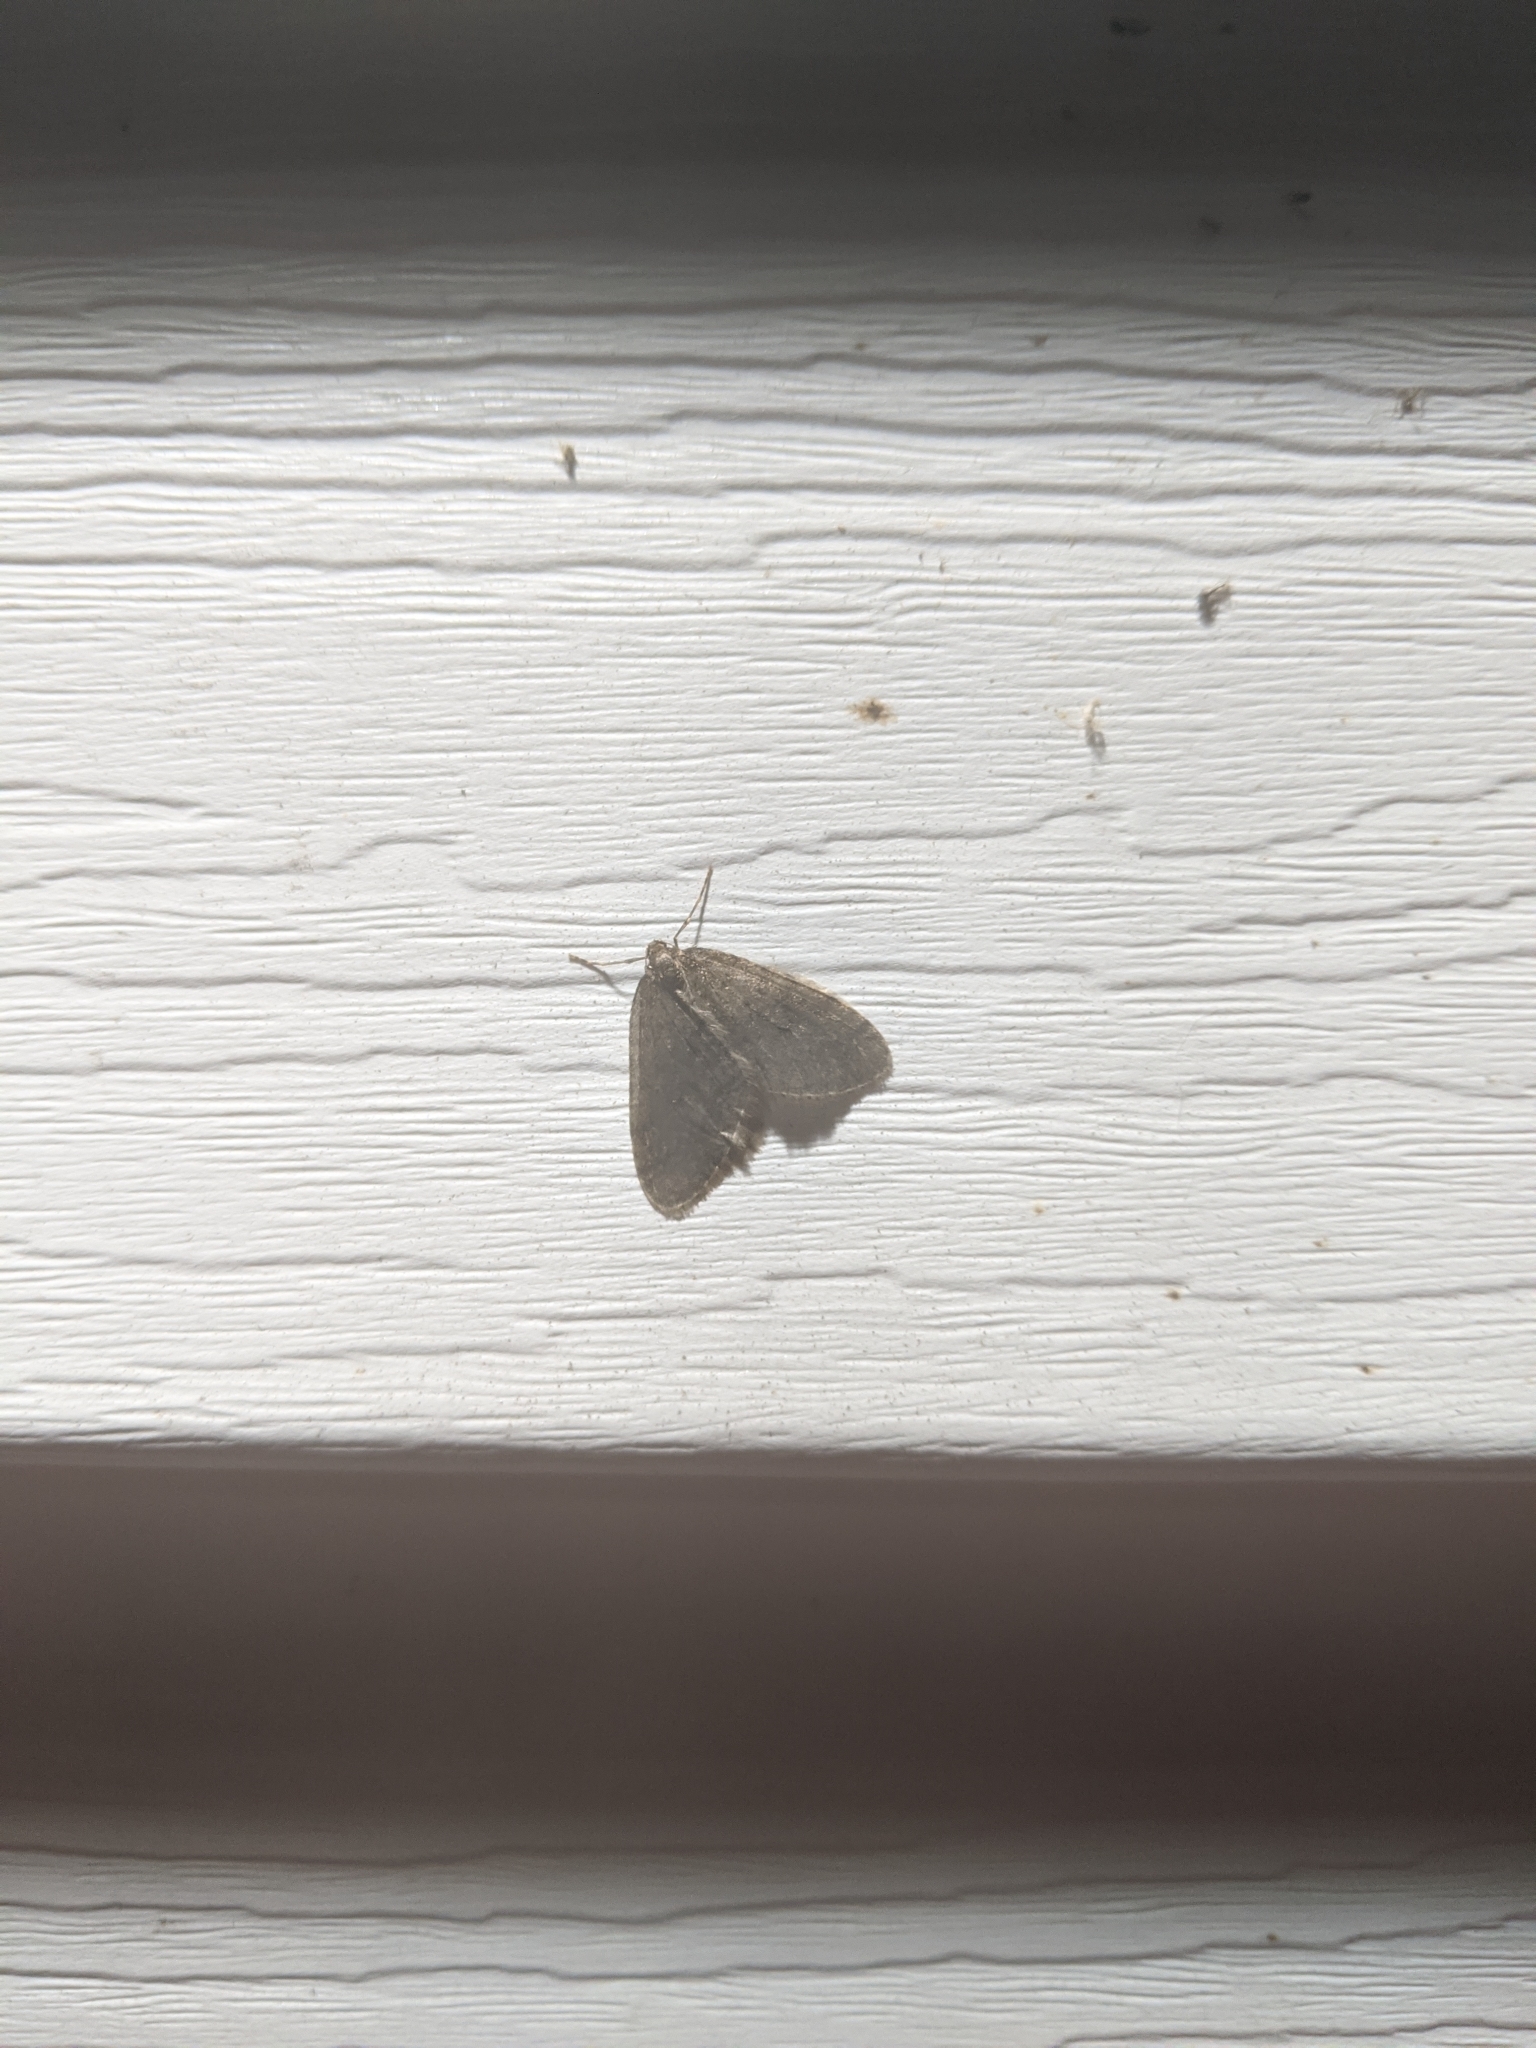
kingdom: Animalia
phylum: Arthropoda
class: Insecta
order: Lepidoptera
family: Geometridae
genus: Operophtera
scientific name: Operophtera brumata
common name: Winter moth
